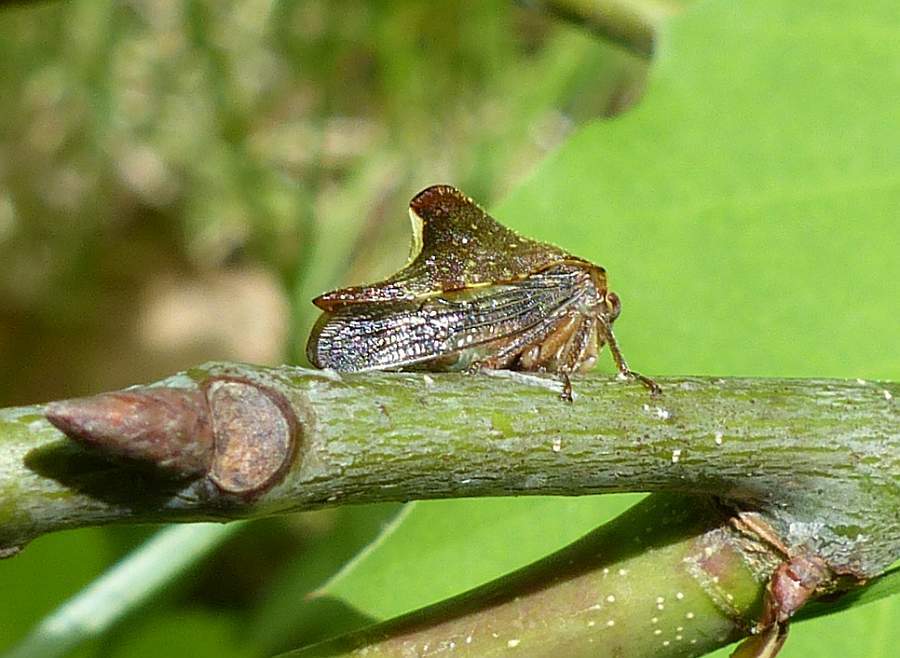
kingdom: Animalia
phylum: Arthropoda
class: Insecta
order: Hemiptera
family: Membracidae
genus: Telamona
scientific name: Telamona monticola
